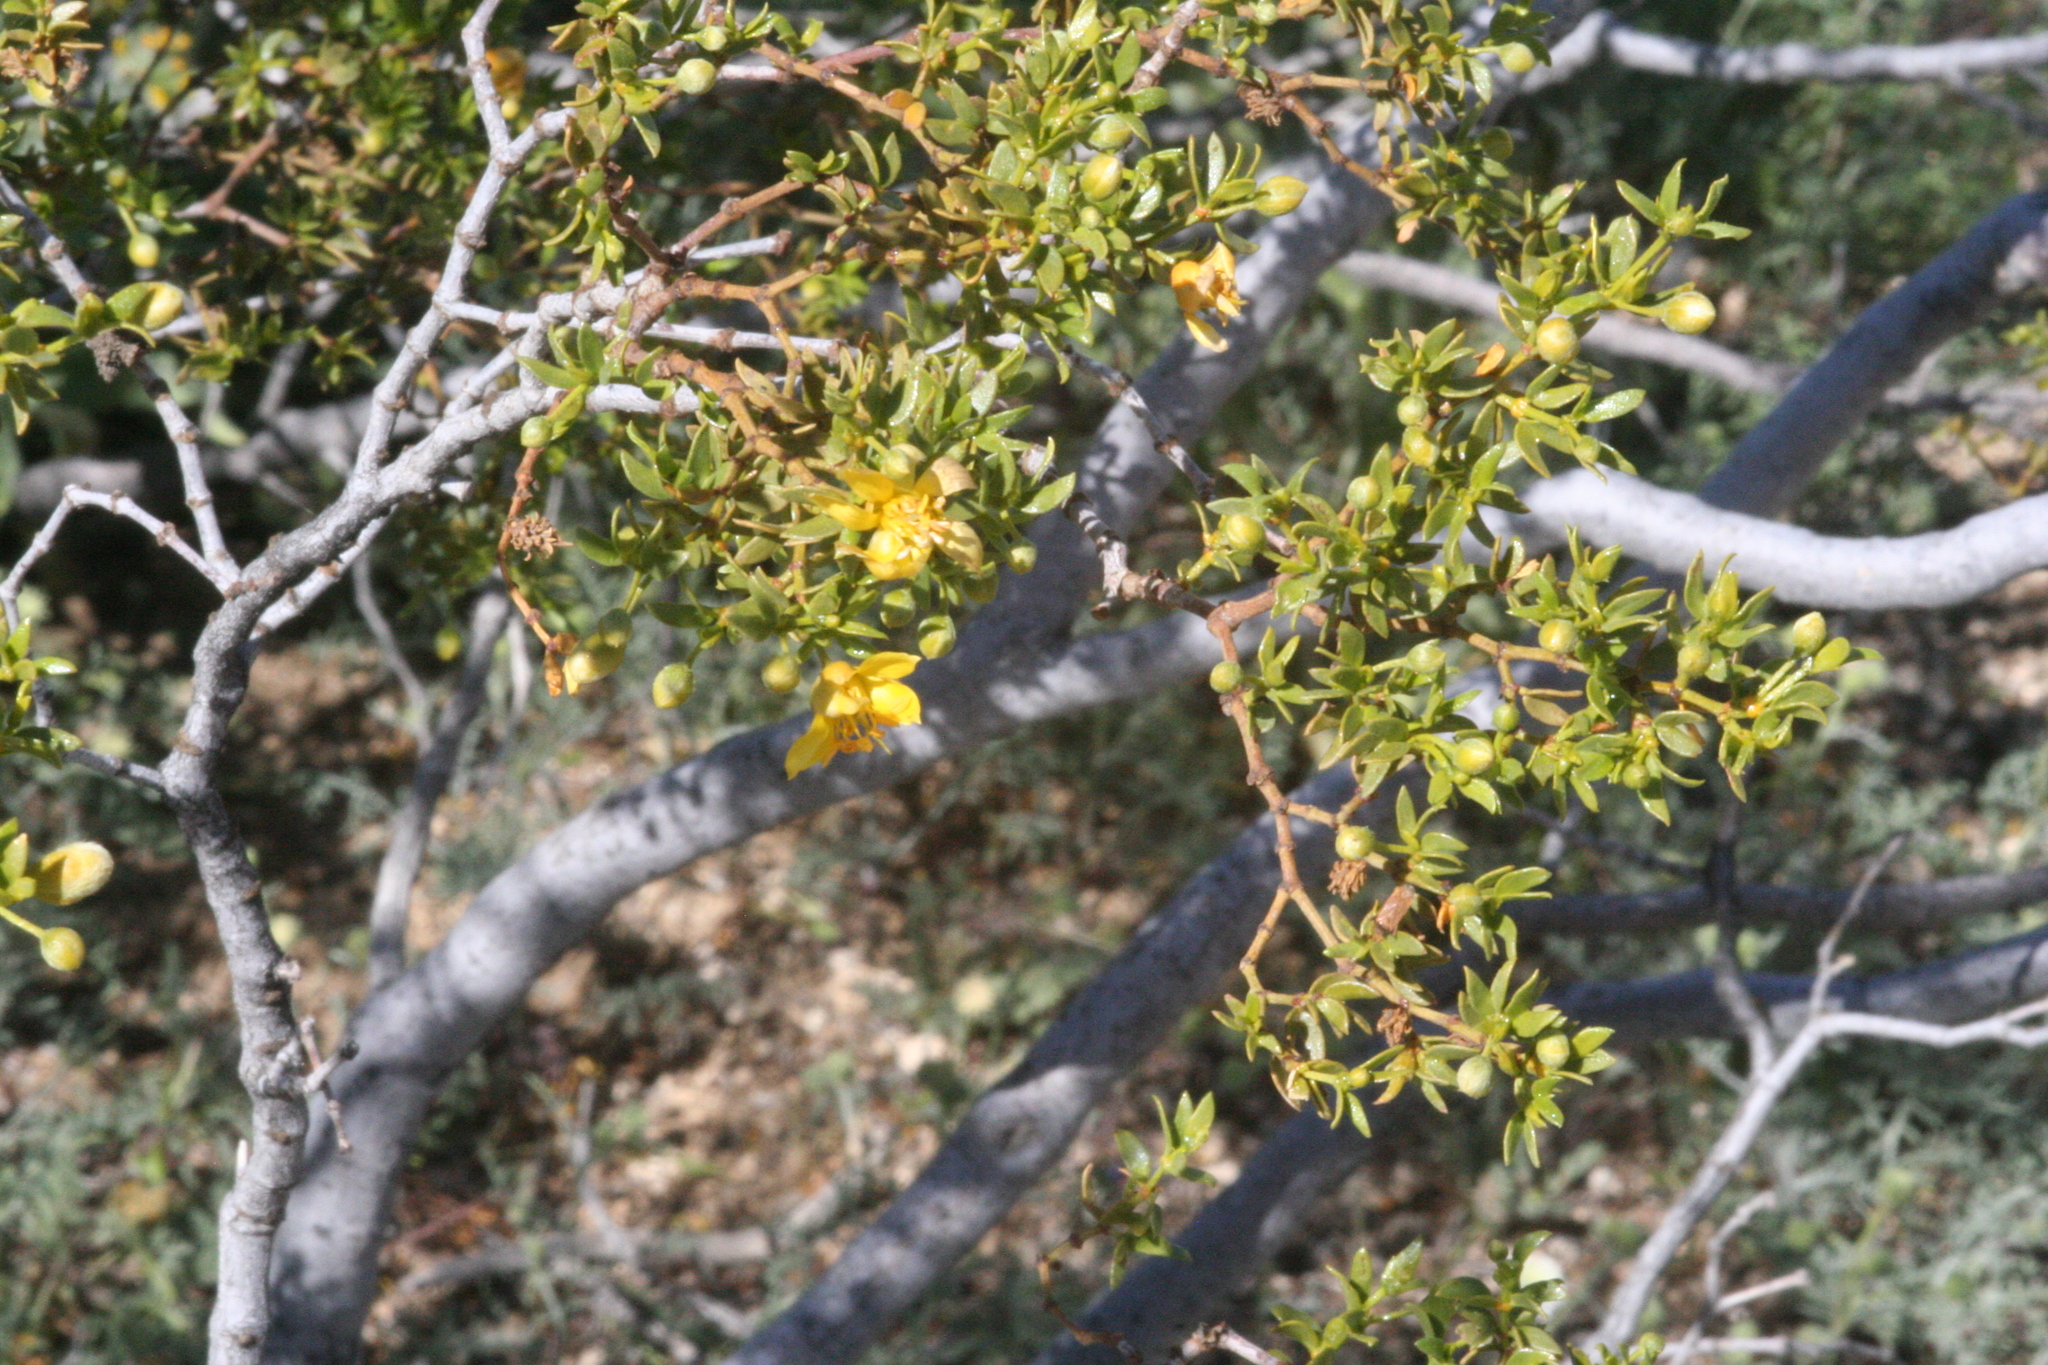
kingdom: Plantae
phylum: Tracheophyta
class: Magnoliopsida
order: Zygophyllales
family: Zygophyllaceae
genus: Larrea
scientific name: Larrea tridentata
